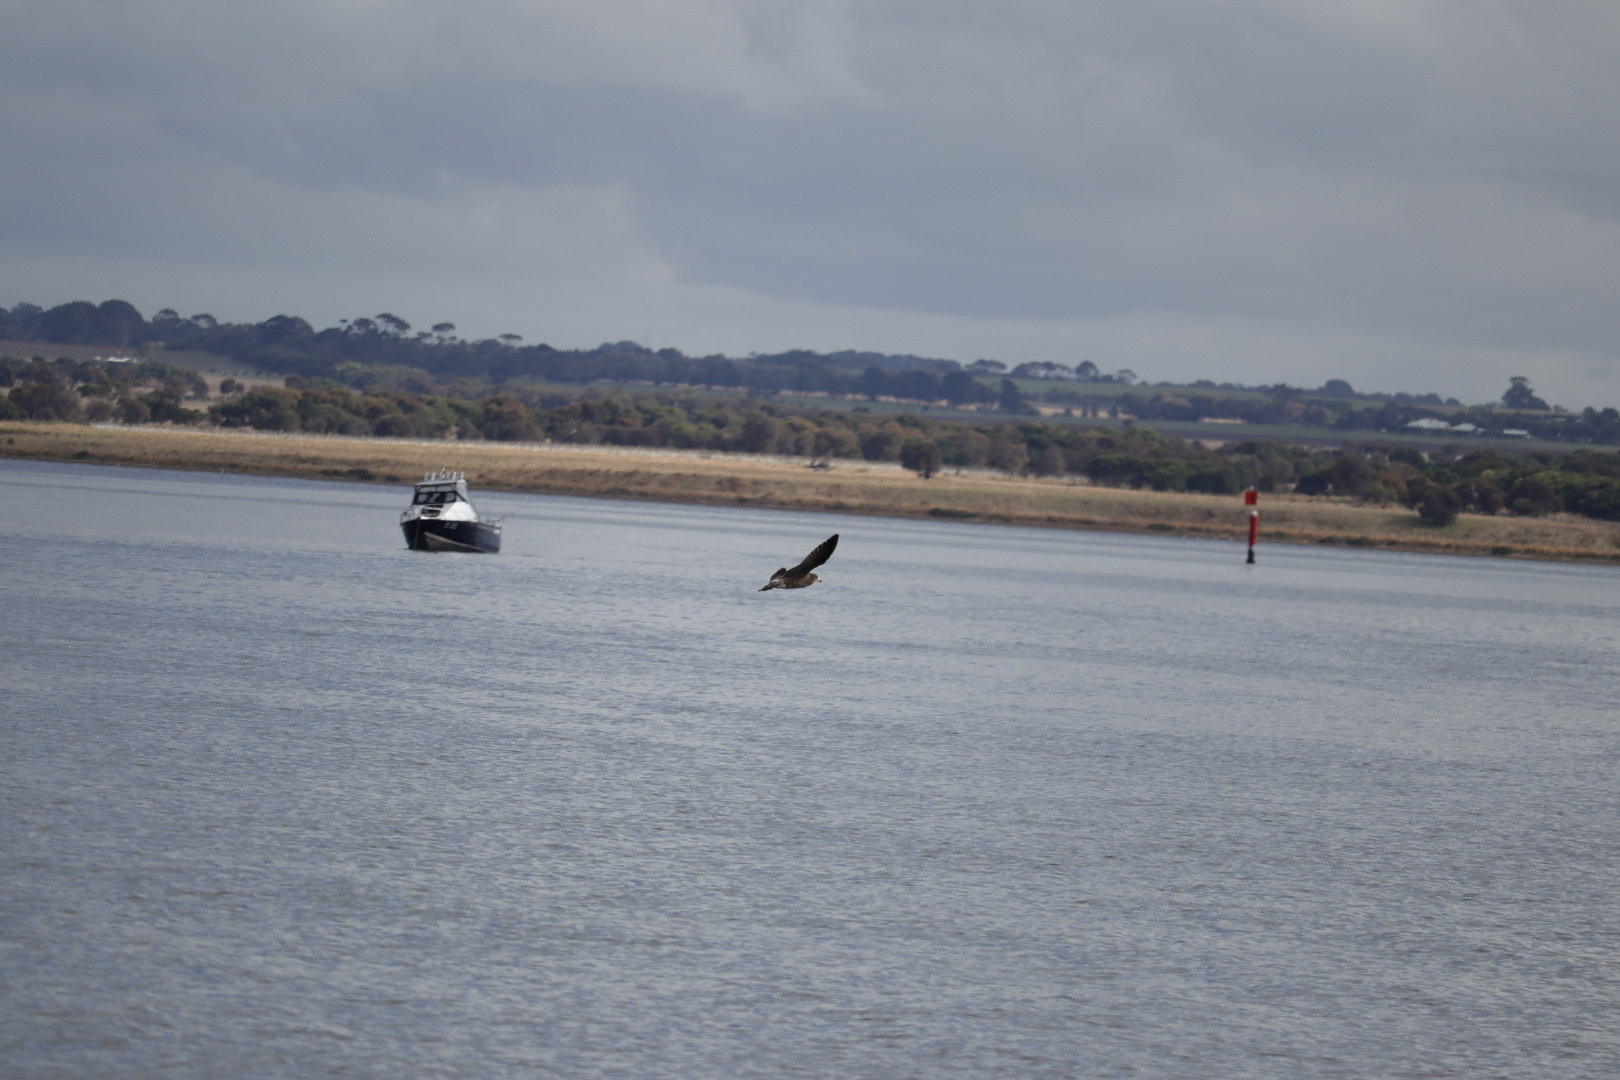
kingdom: Animalia
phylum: Chordata
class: Aves
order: Charadriiformes
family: Laridae
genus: Larus
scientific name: Larus pacificus
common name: Pacific gull
